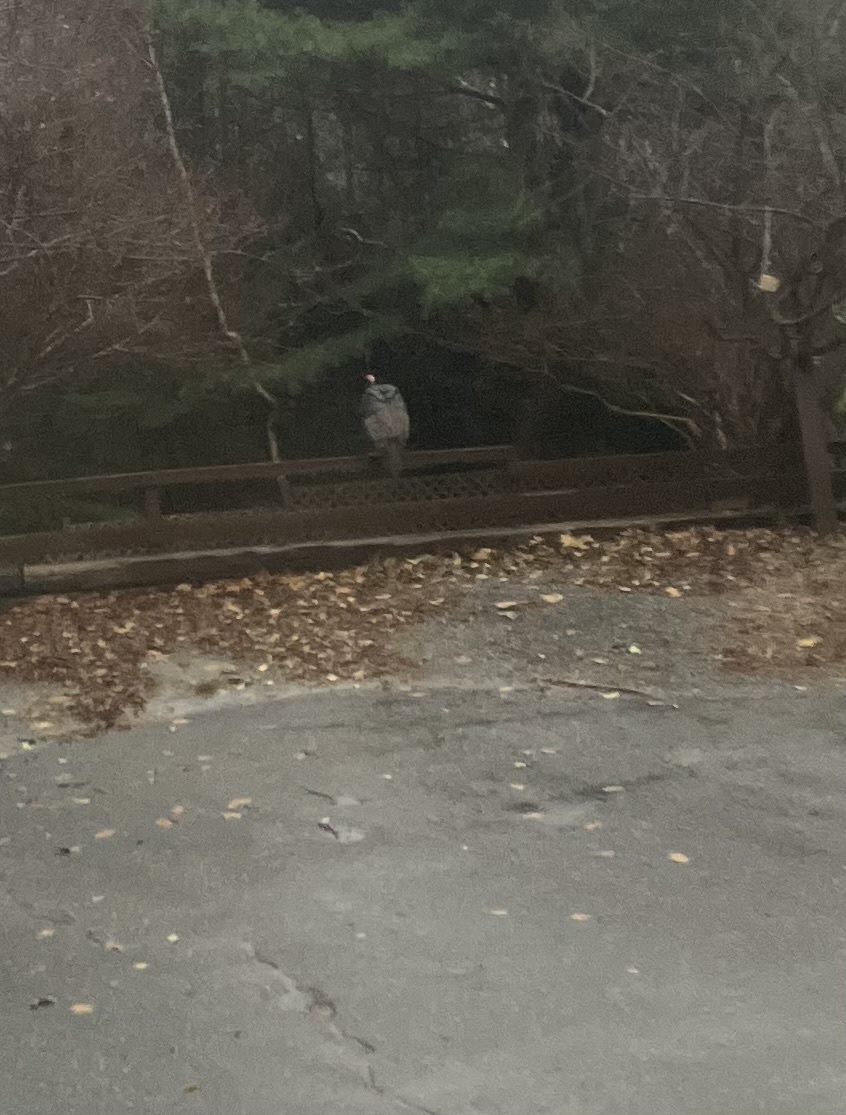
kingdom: Animalia
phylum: Chordata
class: Aves
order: Galliformes
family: Phasianidae
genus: Meleagris
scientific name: Meleagris gallopavo
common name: Wild turkey
